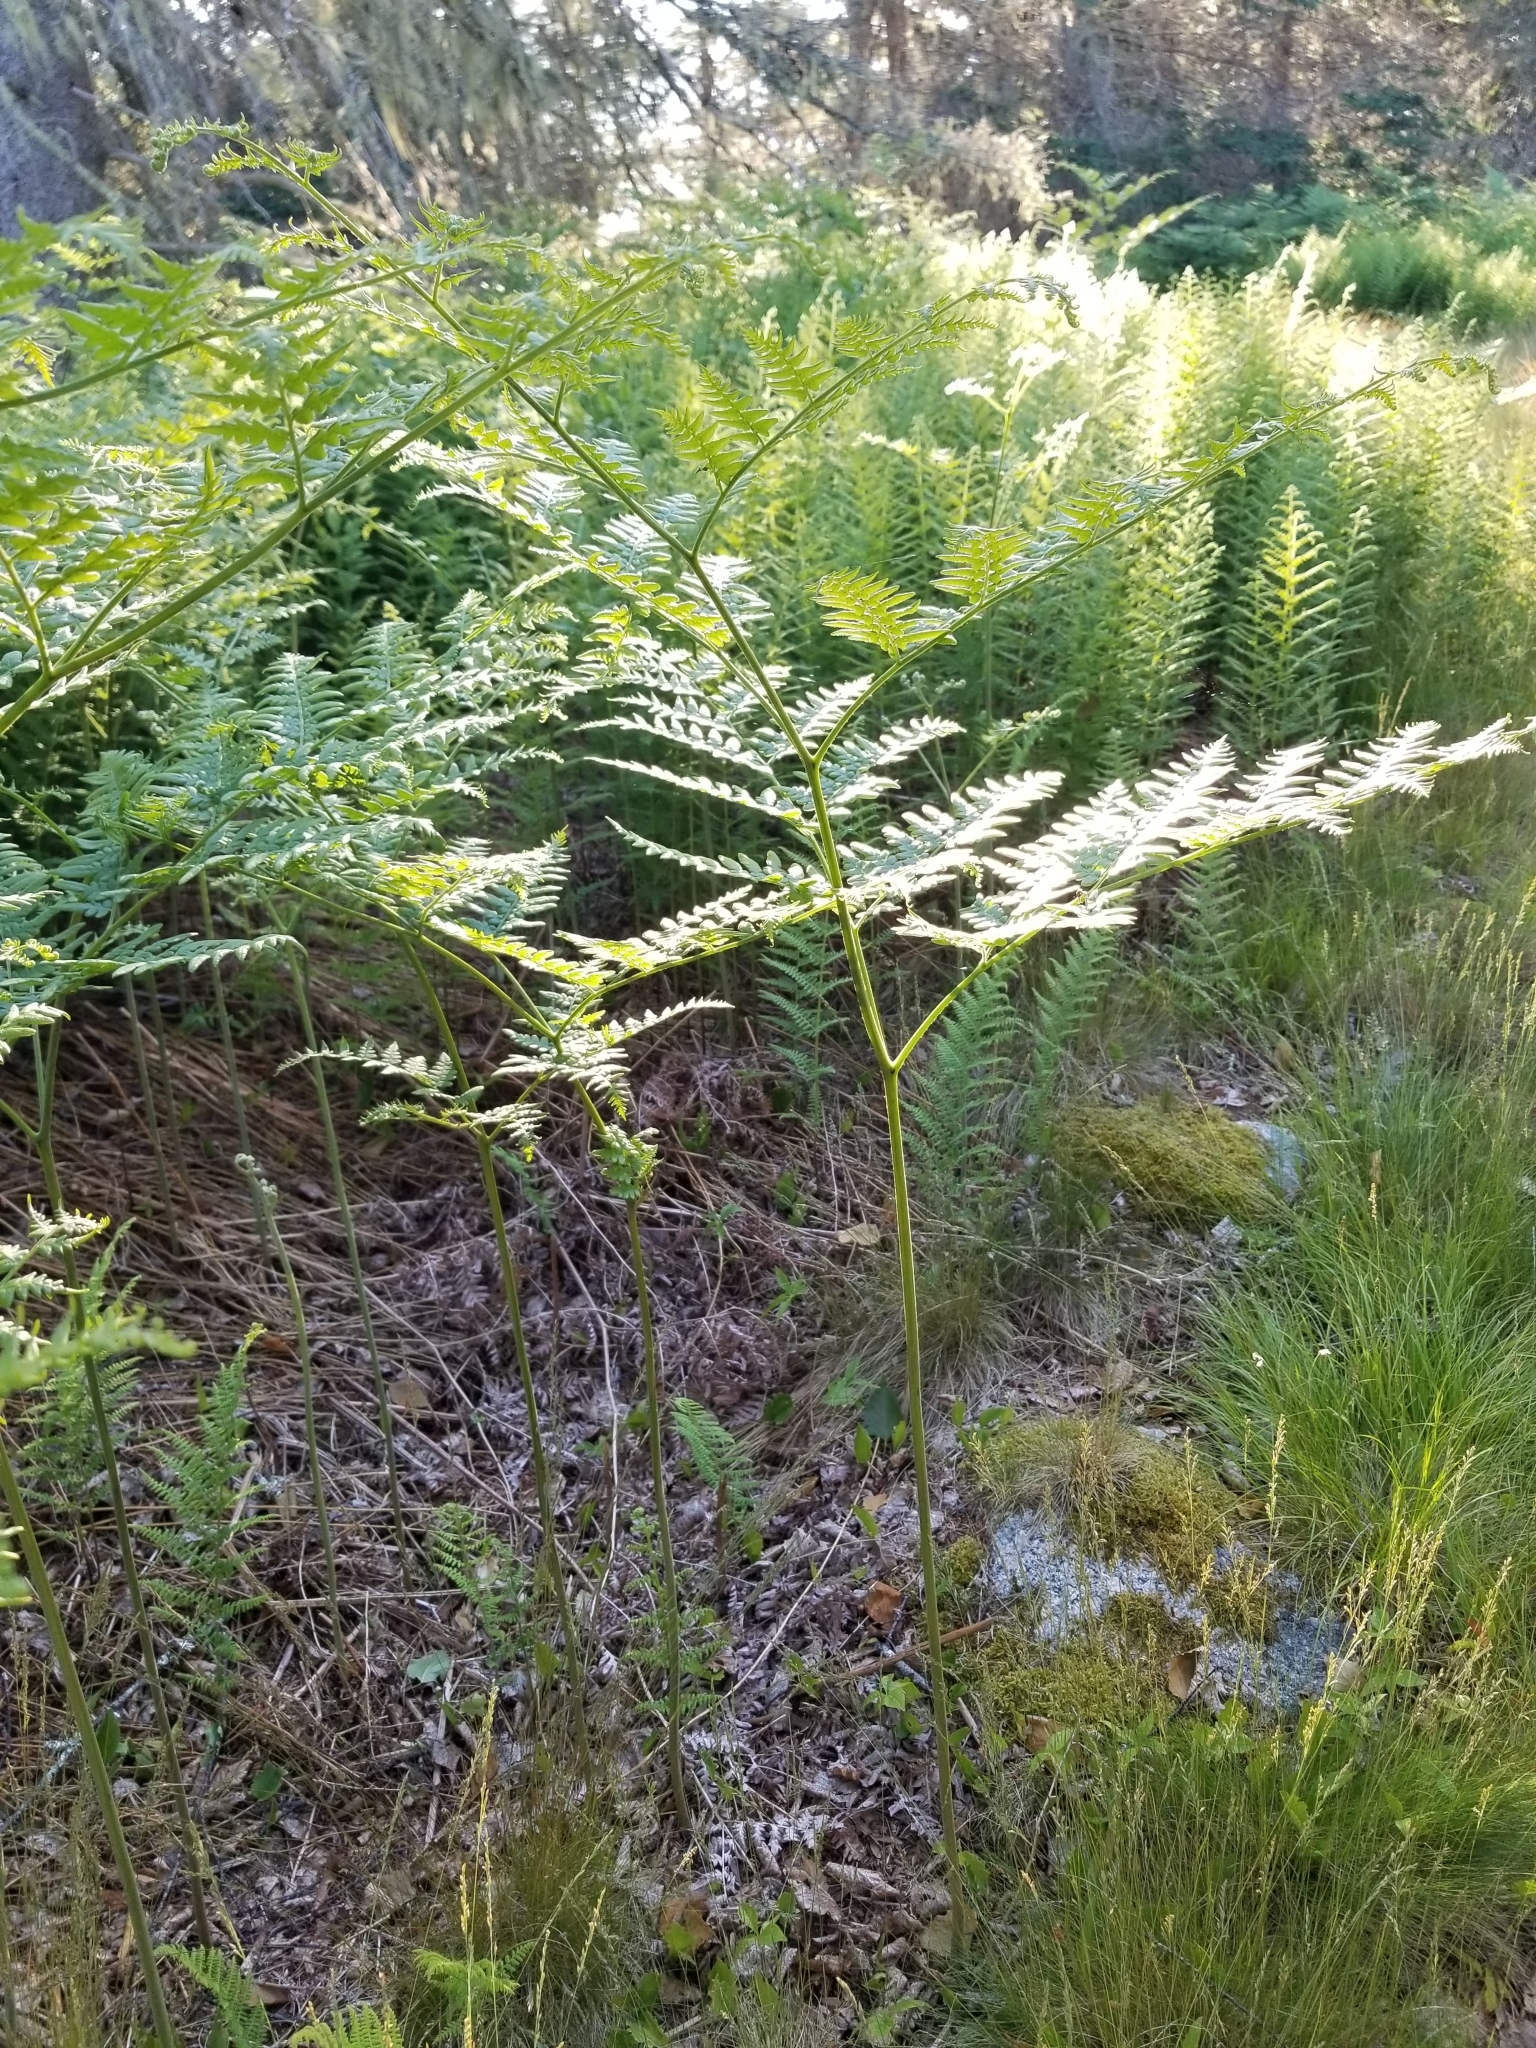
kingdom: Plantae
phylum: Tracheophyta
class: Polypodiopsida
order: Polypodiales
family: Dennstaedtiaceae
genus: Pteridium
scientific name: Pteridium aquilinum
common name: Bracken
